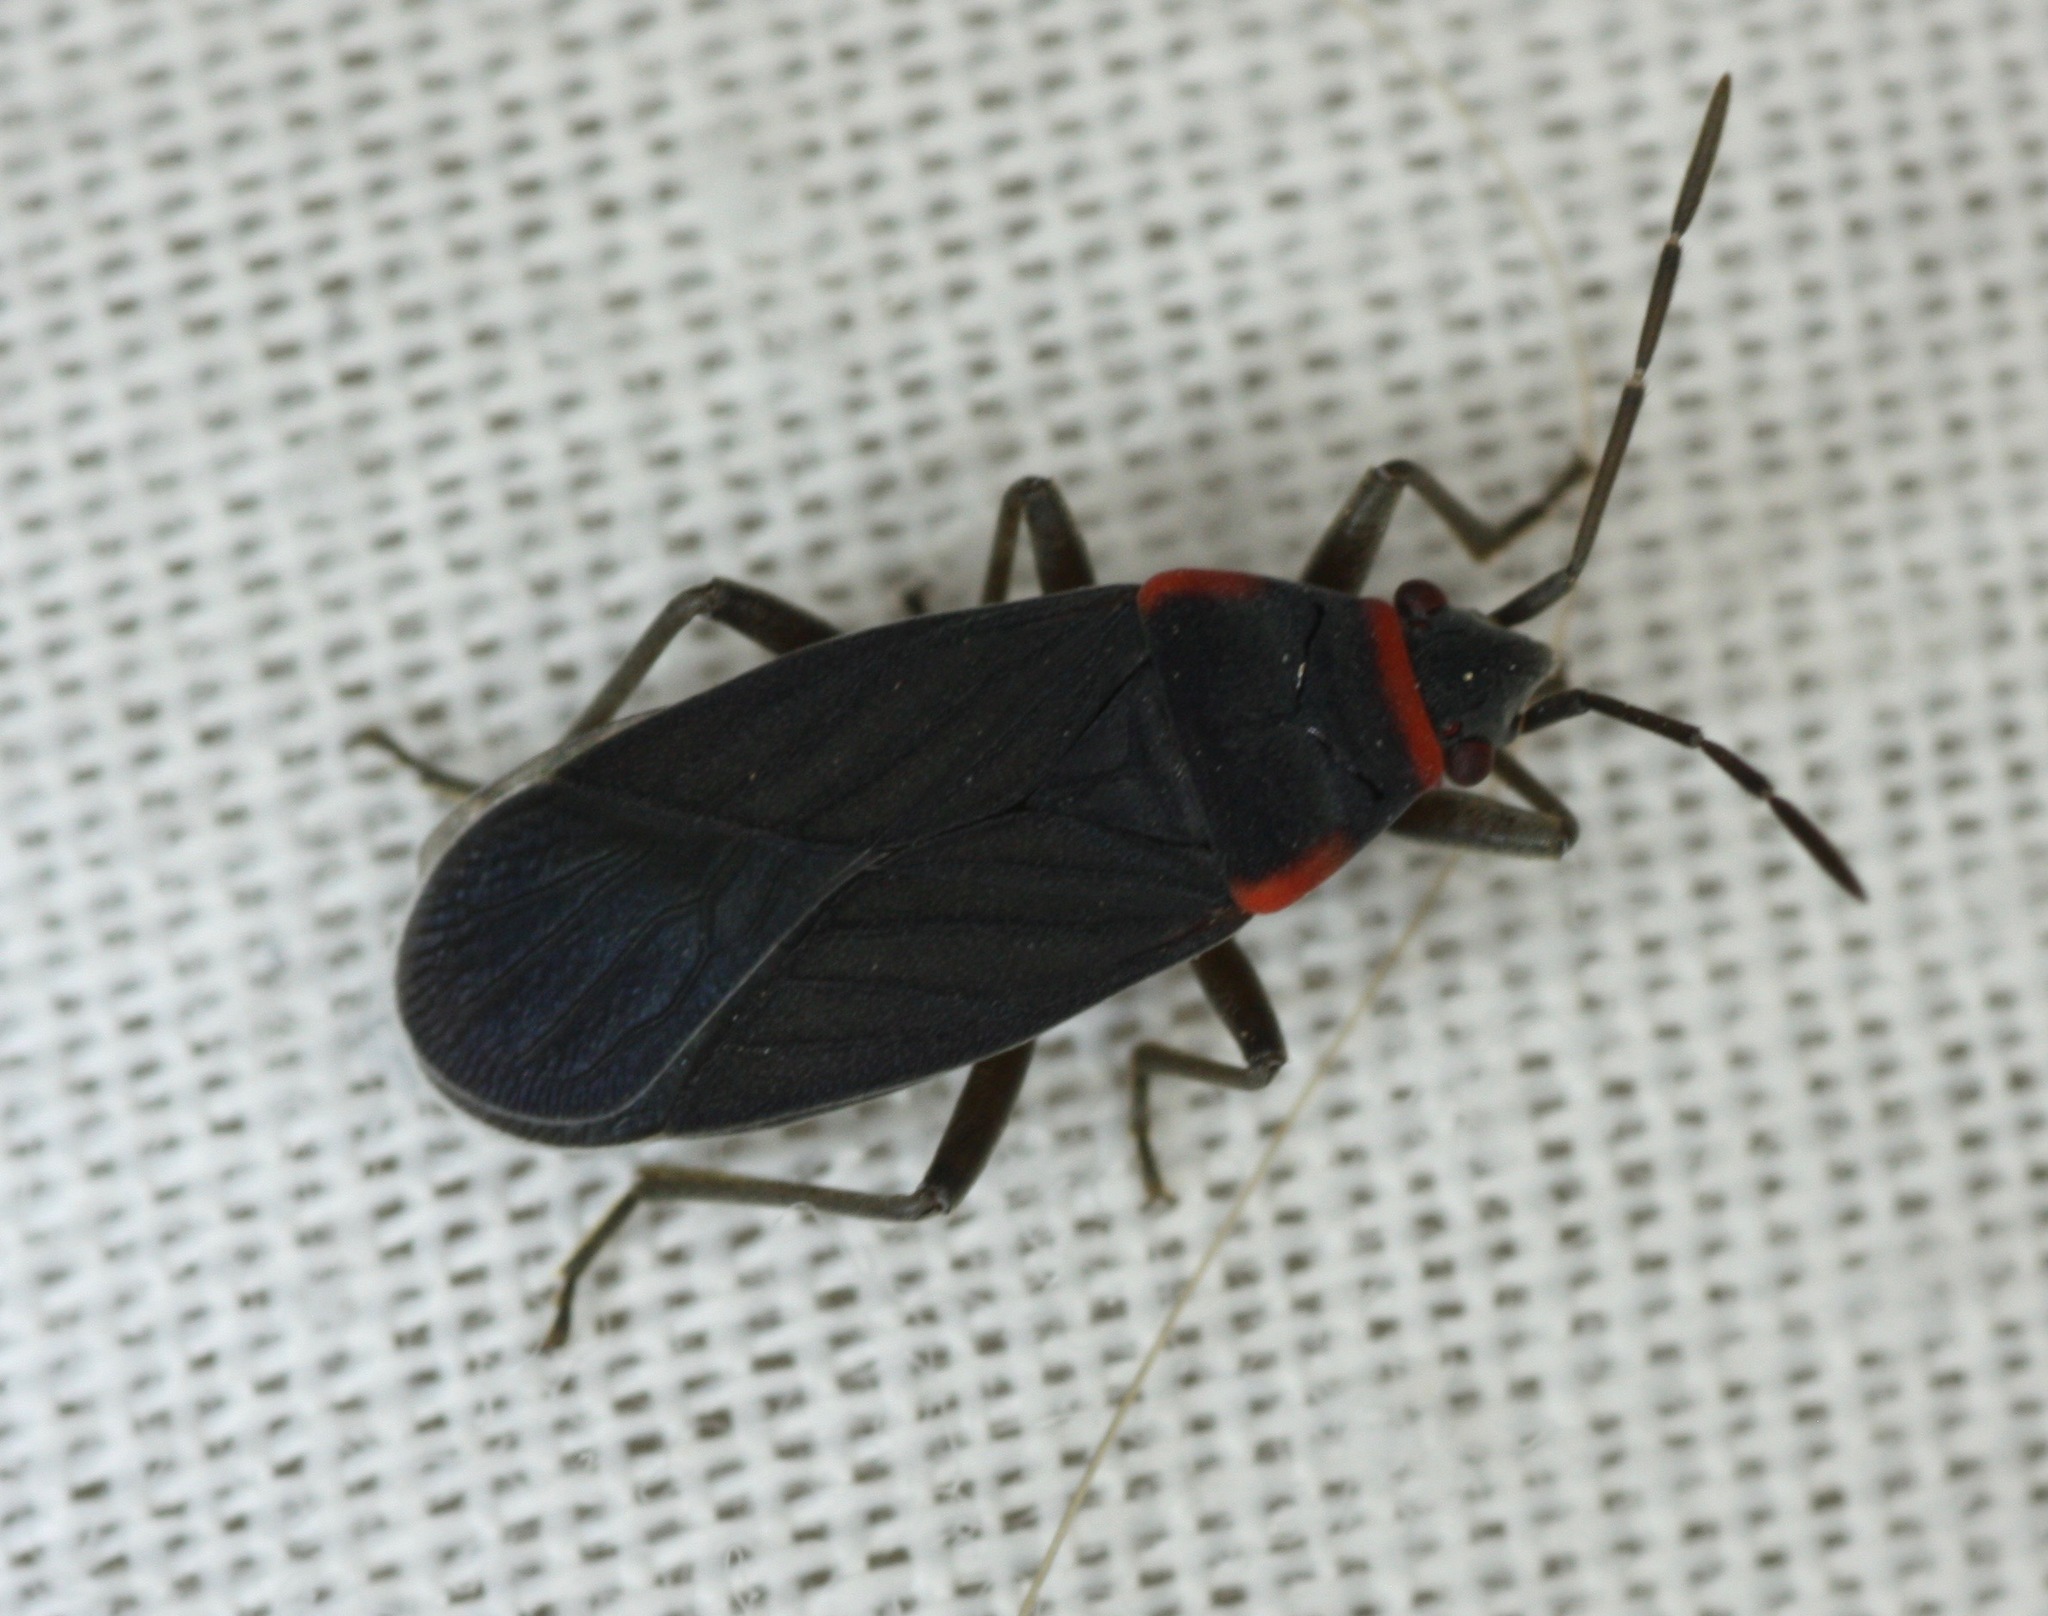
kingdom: Animalia
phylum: Arthropoda
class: Insecta
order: Hemiptera
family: Lygaeidae
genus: Melacoryphus
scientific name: Melacoryphus rubicollis
